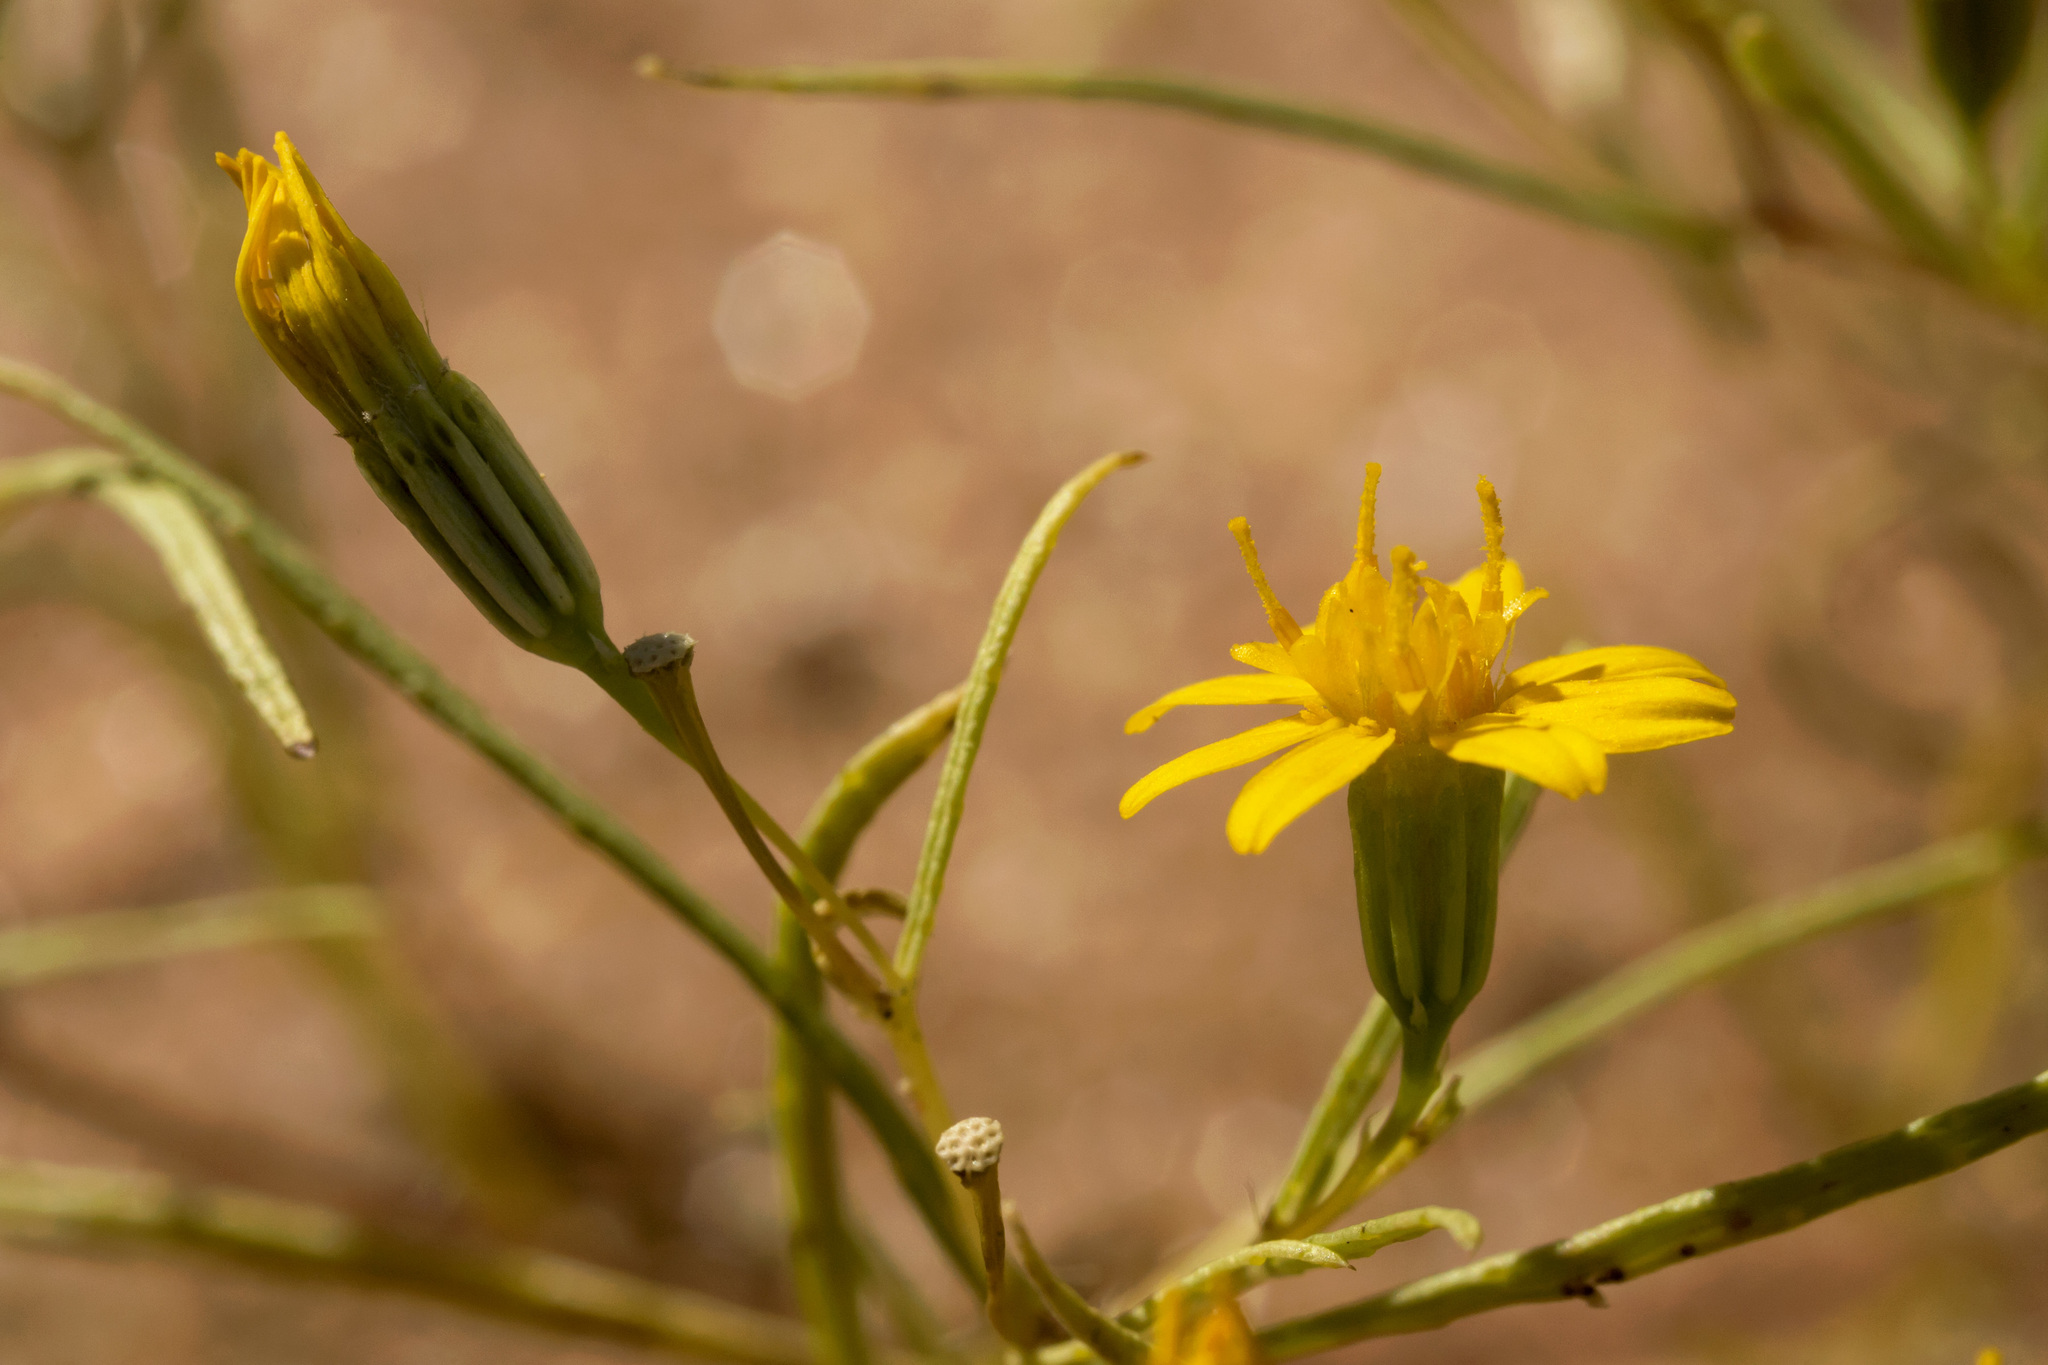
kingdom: Plantae
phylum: Tracheophyta
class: Magnoliopsida
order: Asterales
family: Asteraceae
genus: Pectis
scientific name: Pectis papposa
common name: Many-bristle chinchweed
